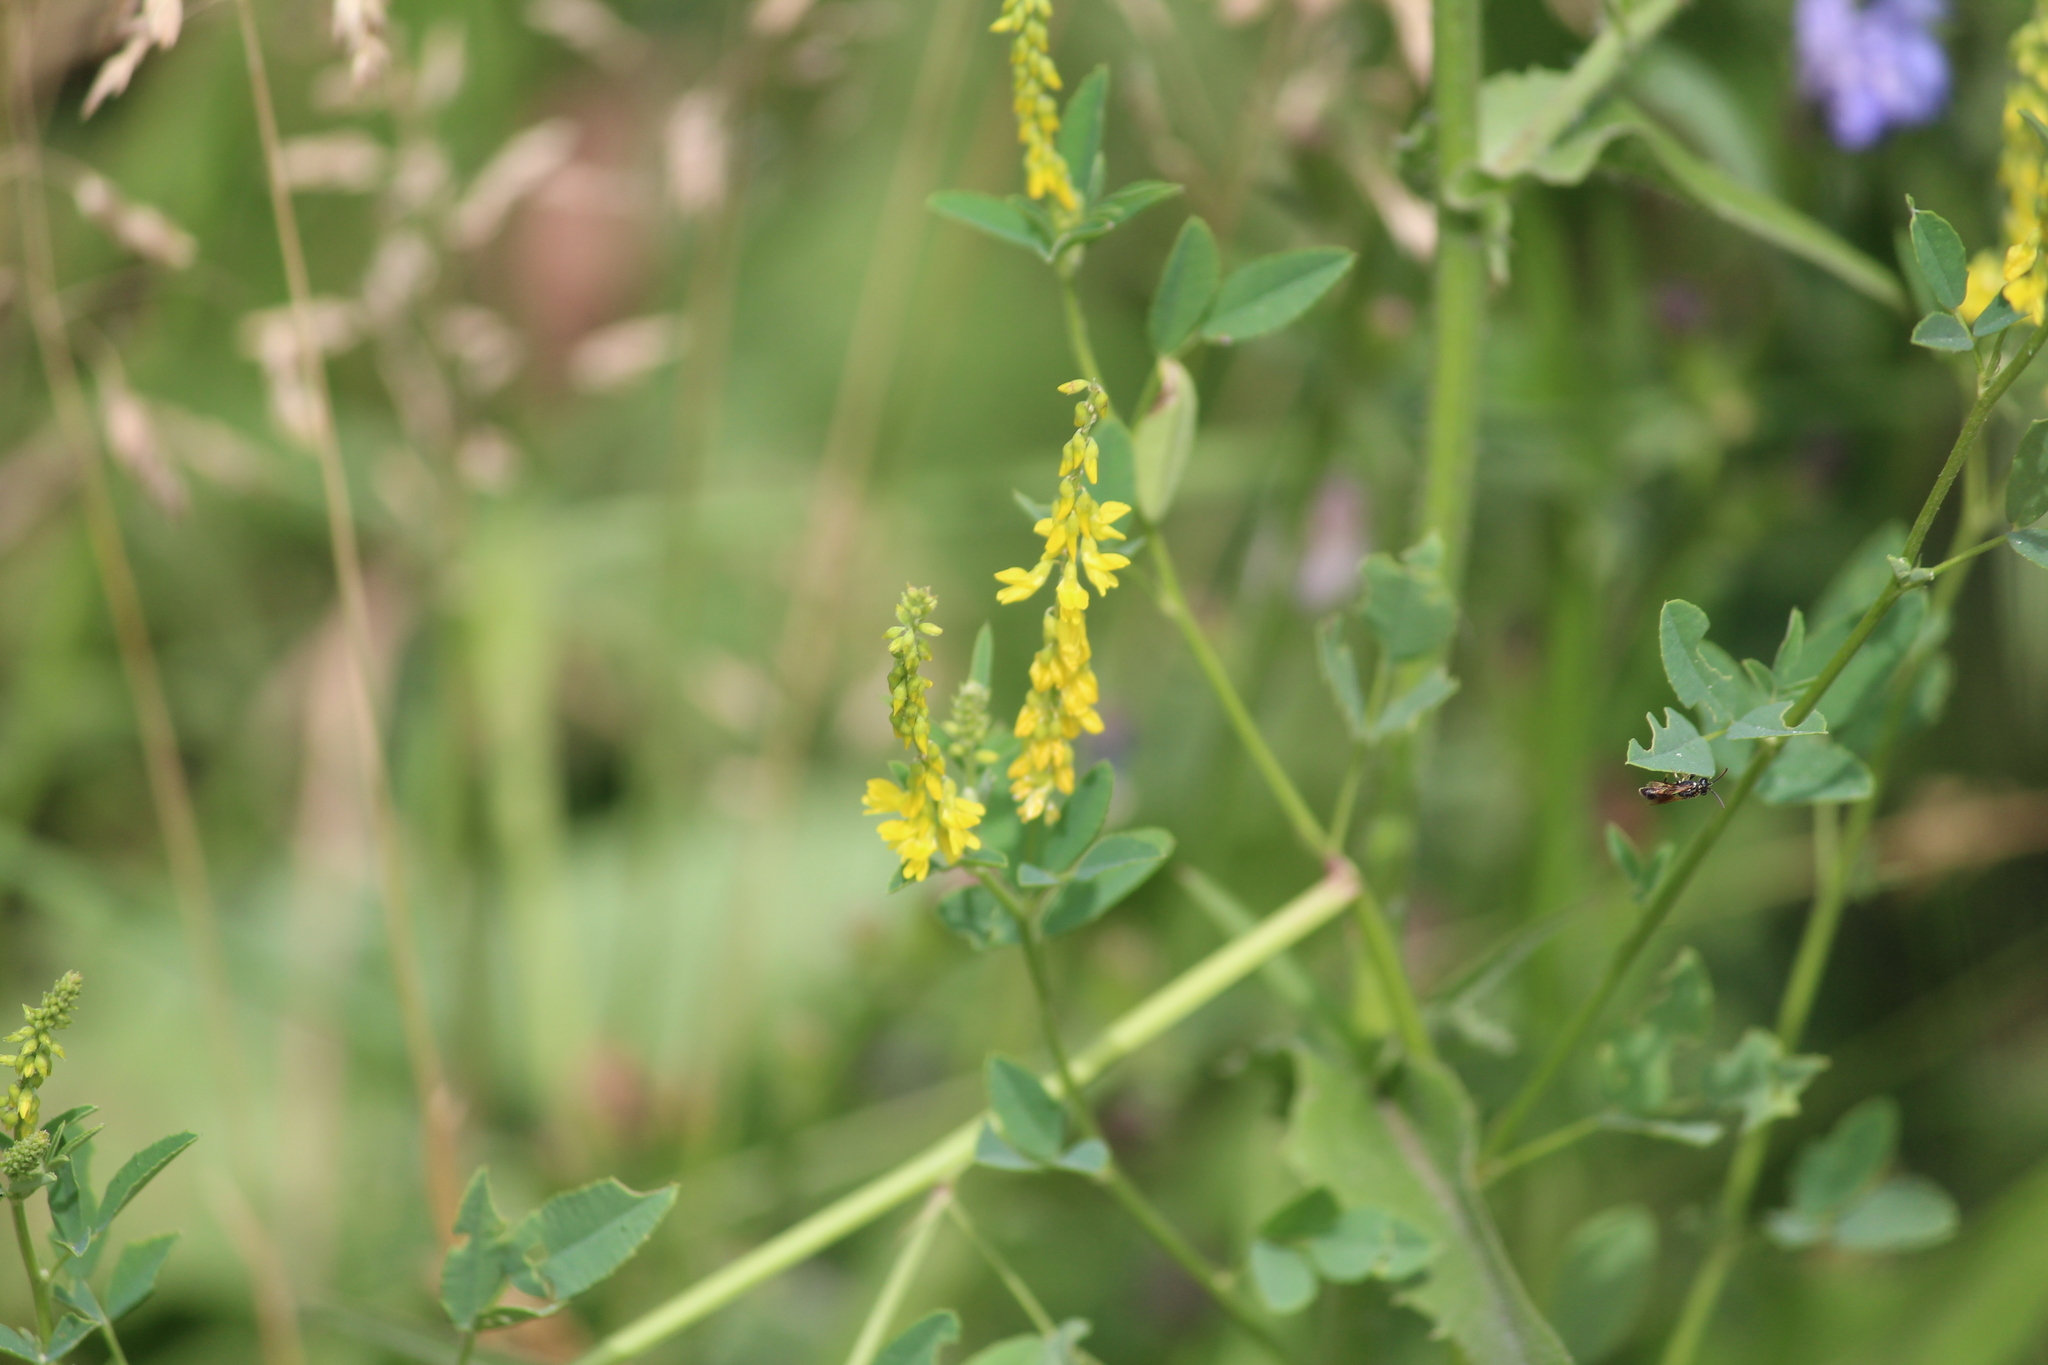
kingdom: Plantae
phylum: Tracheophyta
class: Magnoliopsida
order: Fabales
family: Fabaceae
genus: Melilotus
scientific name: Melilotus officinalis
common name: Sweetclover
